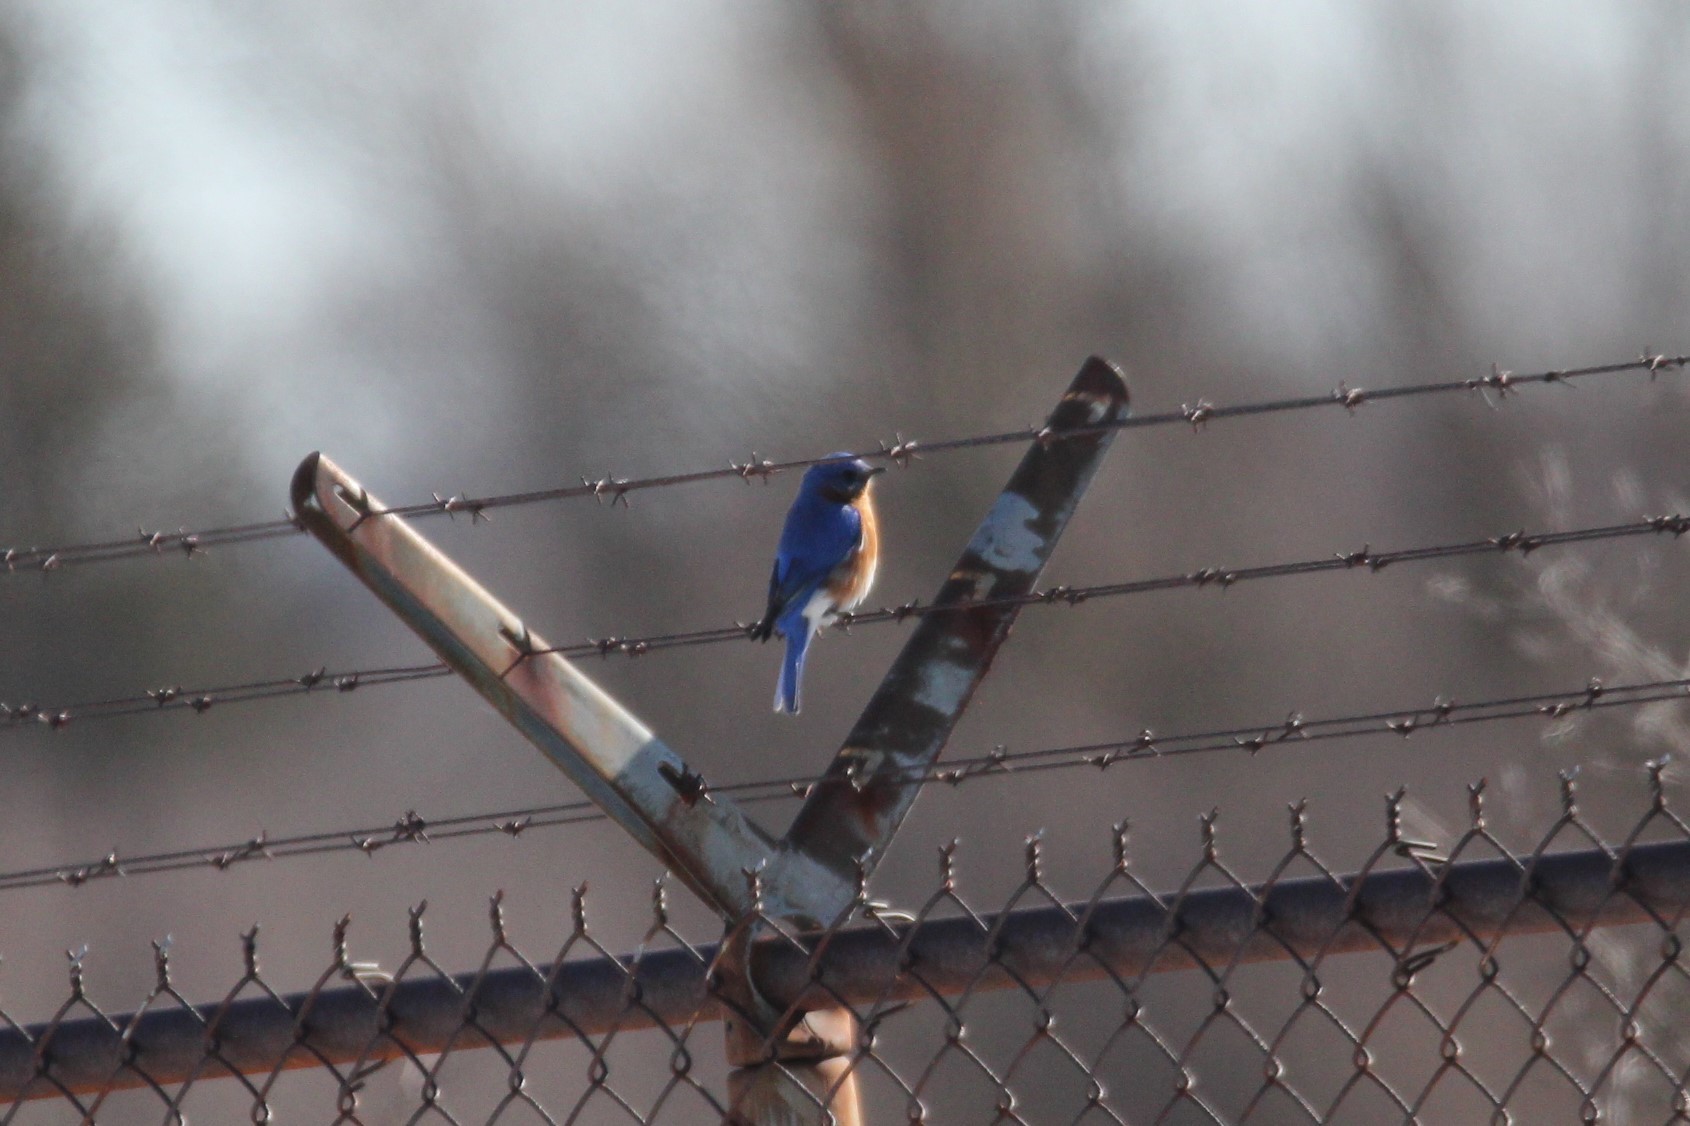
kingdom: Animalia
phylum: Chordata
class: Aves
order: Passeriformes
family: Turdidae
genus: Sialia
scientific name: Sialia sialis
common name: Eastern bluebird
